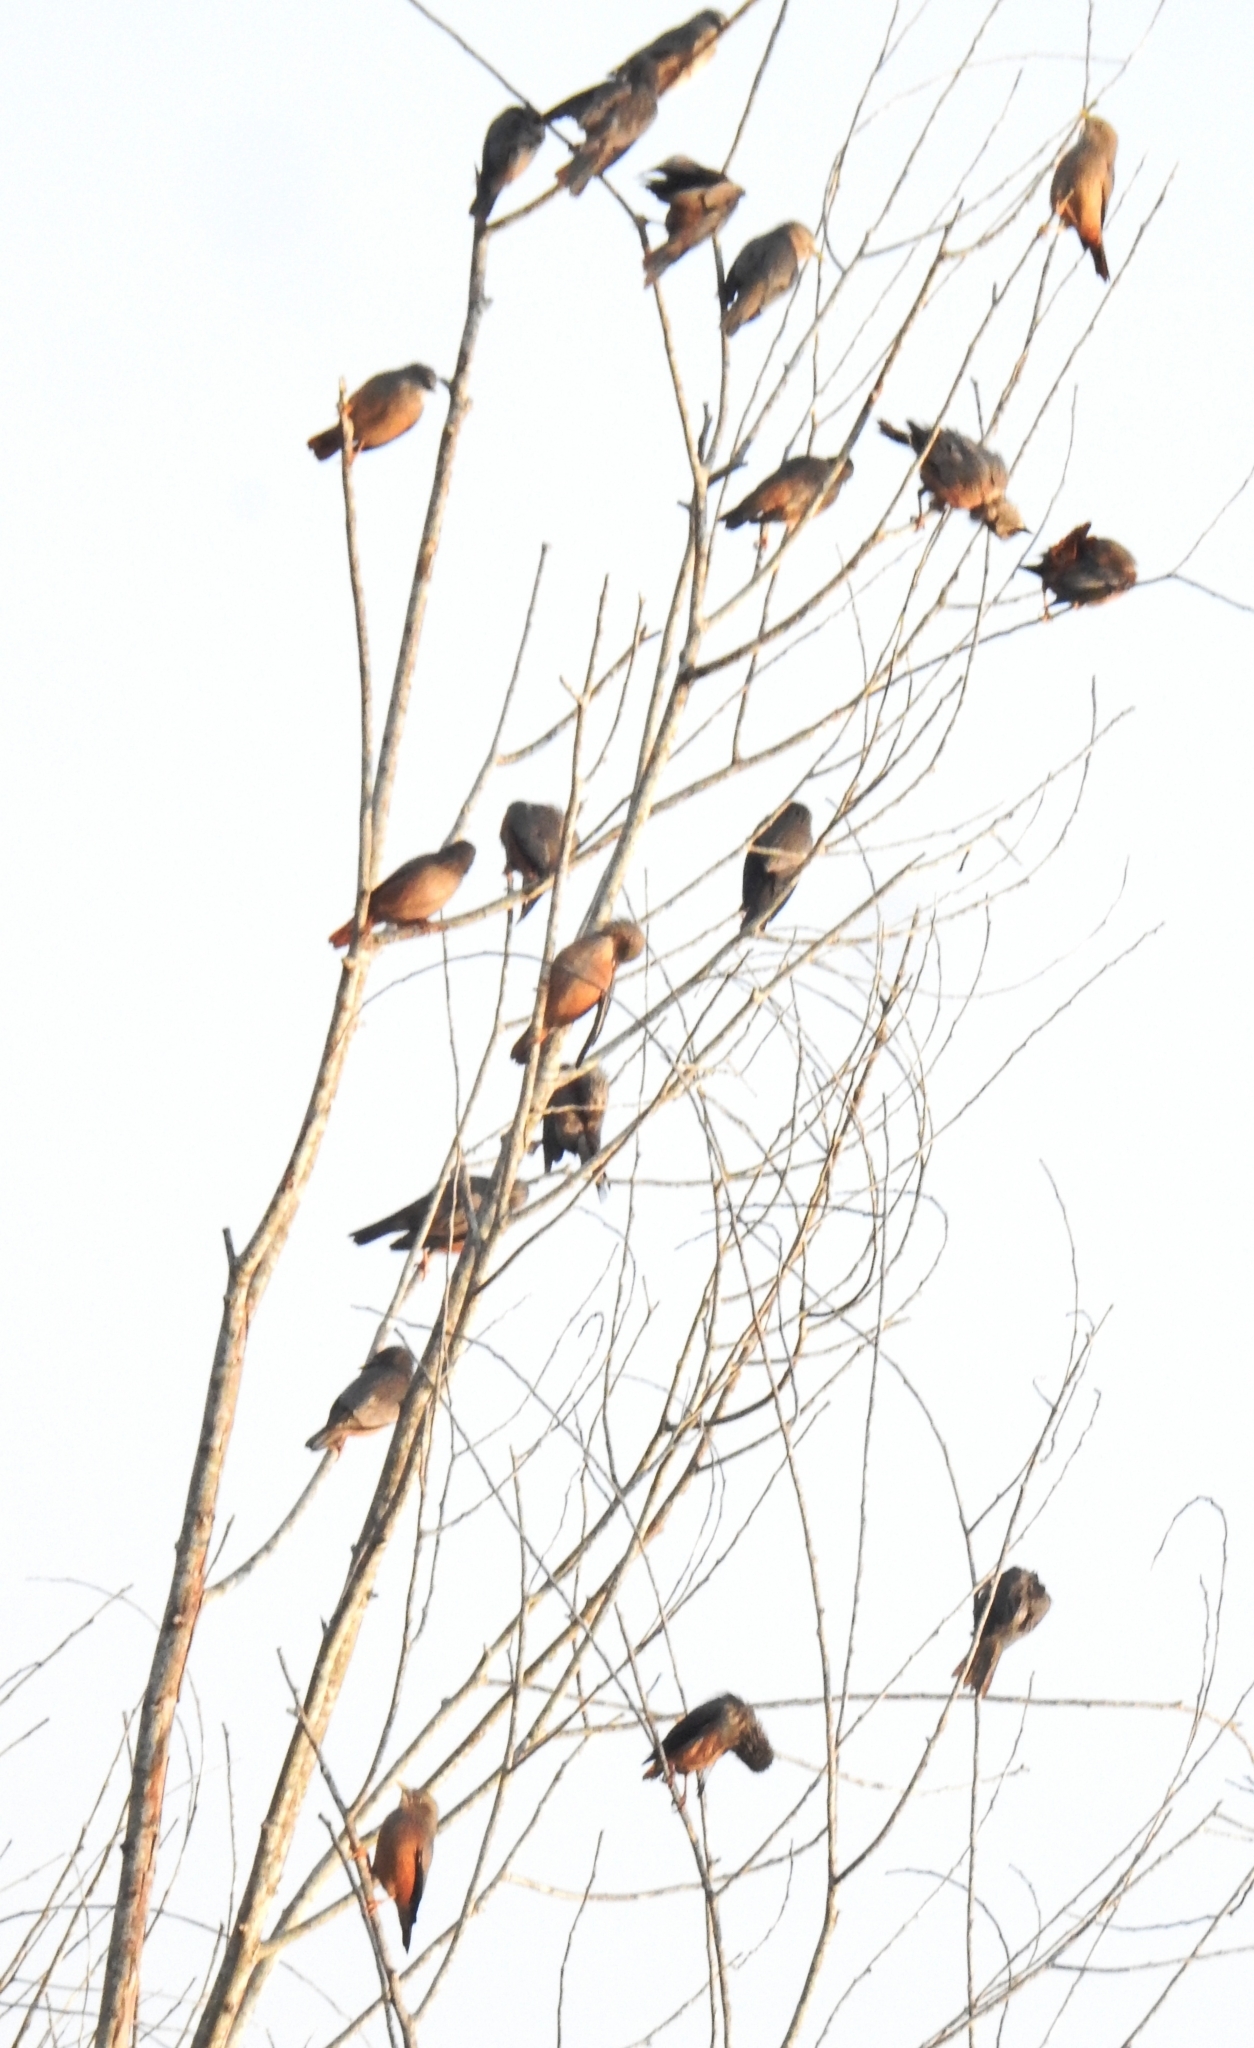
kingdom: Animalia
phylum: Chordata
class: Aves
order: Passeriformes
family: Sturnidae
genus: Sturnia
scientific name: Sturnia malabarica
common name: Chestnut-tailed starling
